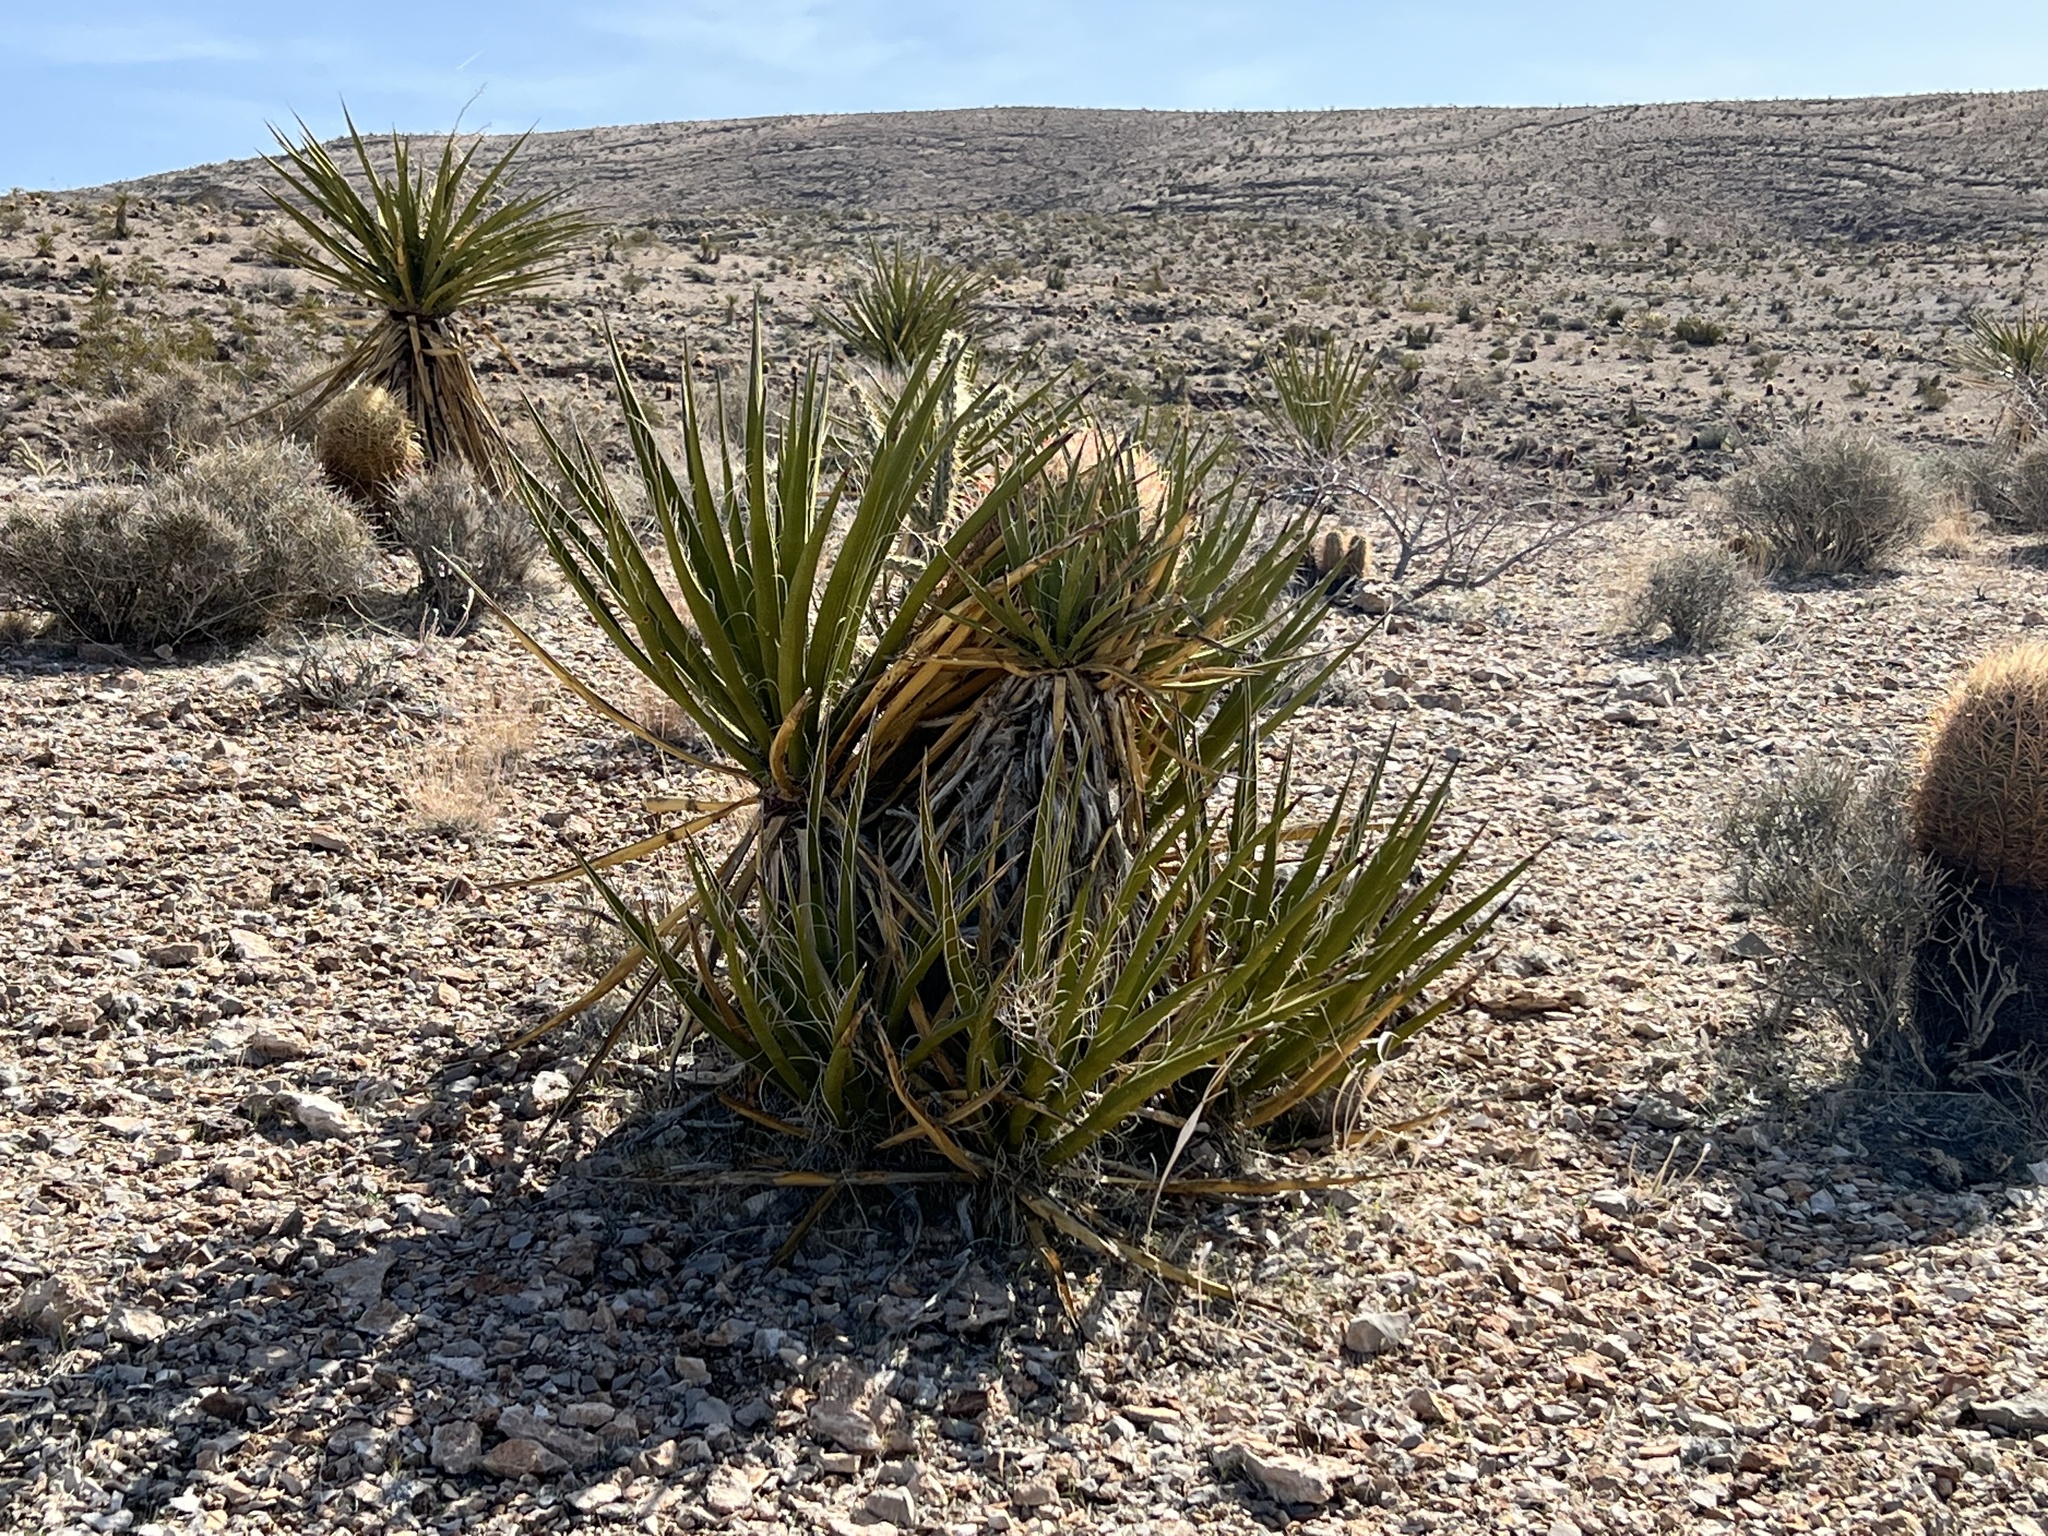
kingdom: Plantae
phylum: Tracheophyta
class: Liliopsida
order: Asparagales
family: Asparagaceae
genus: Yucca
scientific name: Yucca schidigera
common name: Mojave yucca
